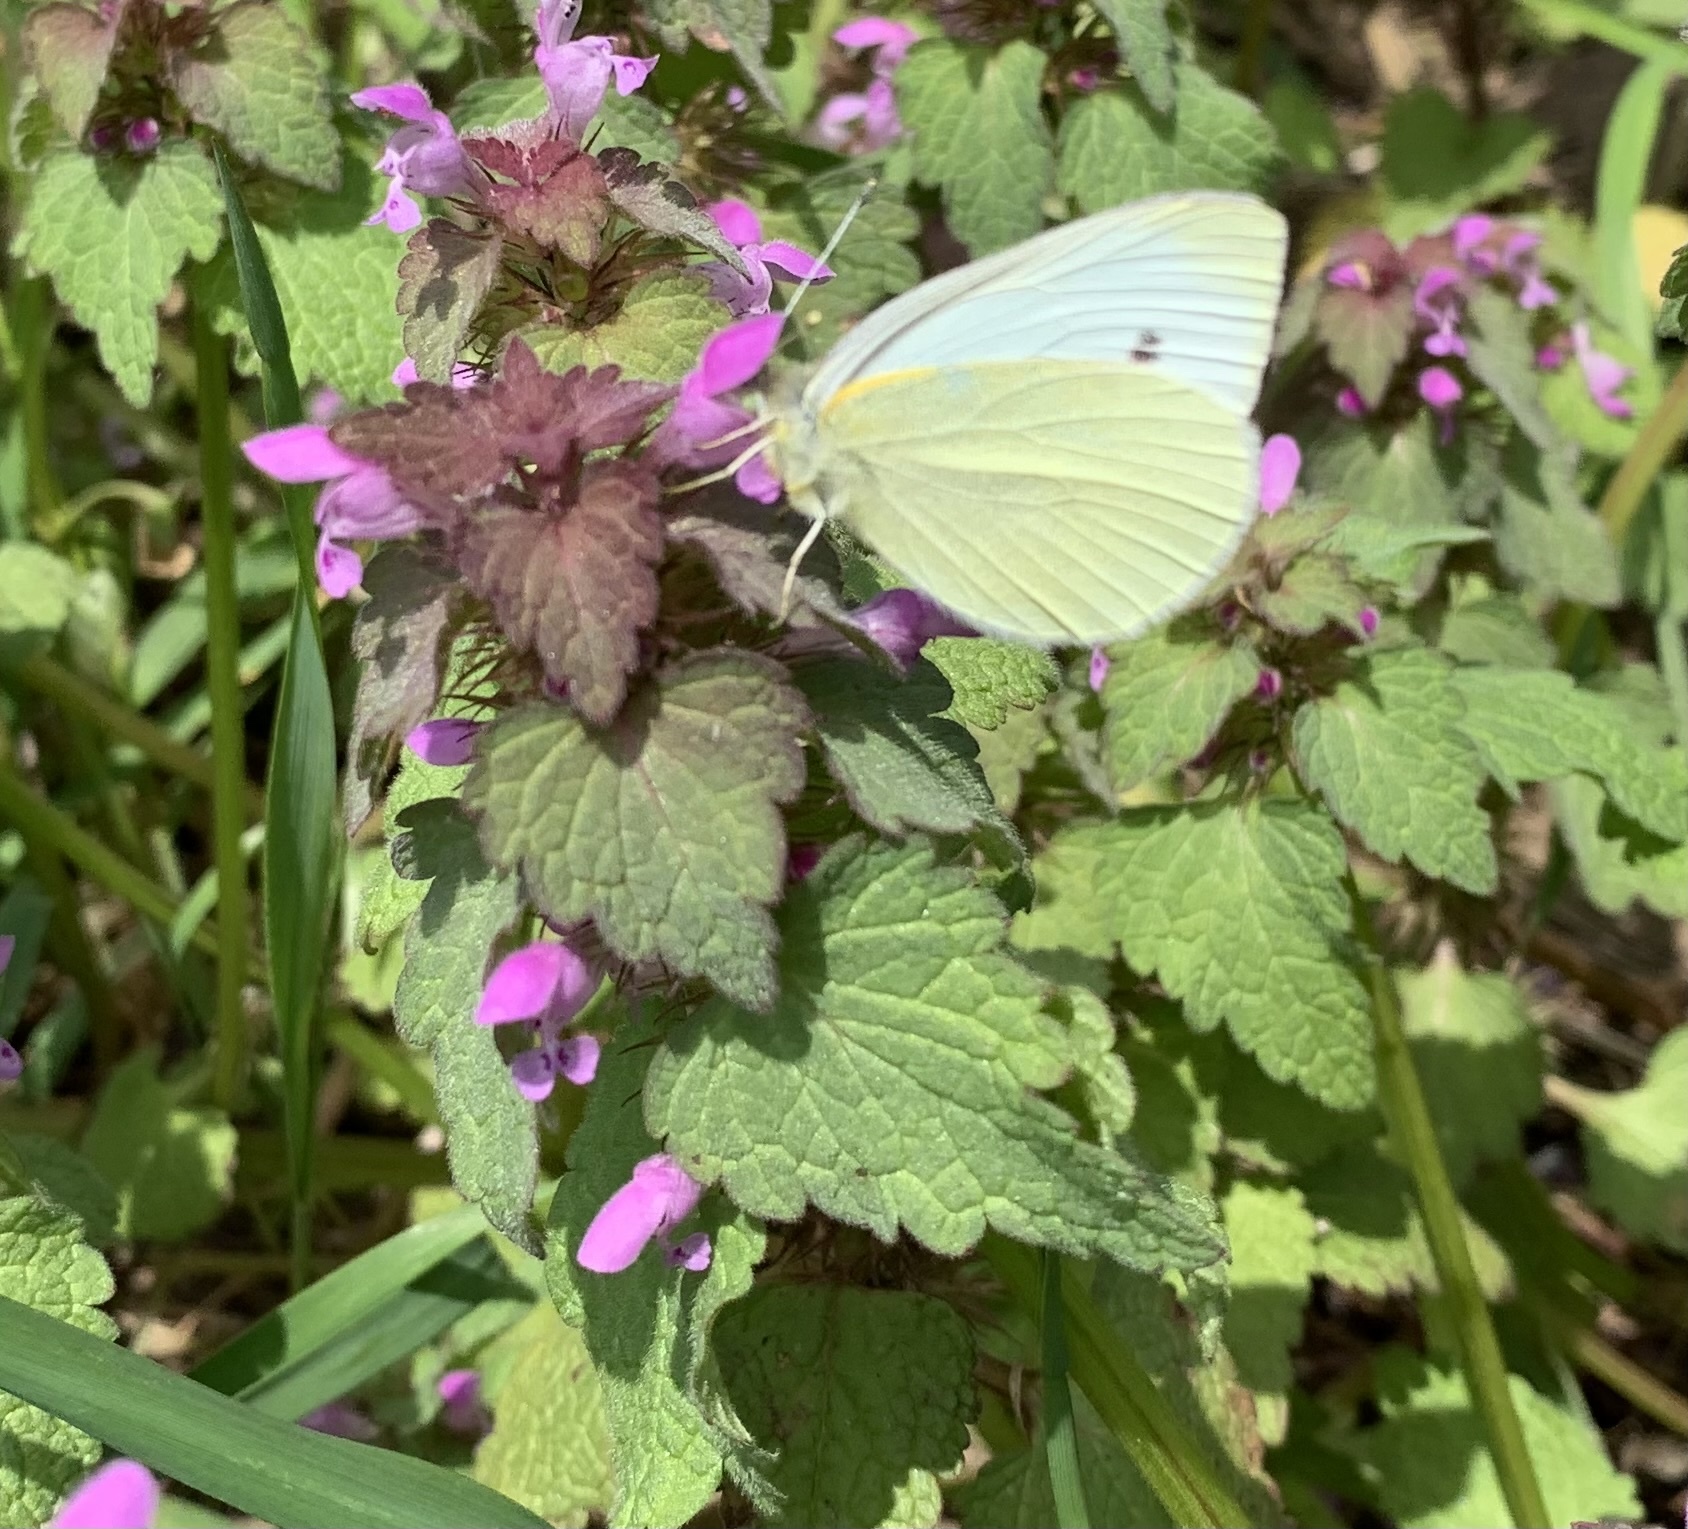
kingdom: Animalia
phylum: Arthropoda
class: Insecta
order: Lepidoptera
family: Pieridae
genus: Pieris
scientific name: Pieris rapae
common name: Small white
